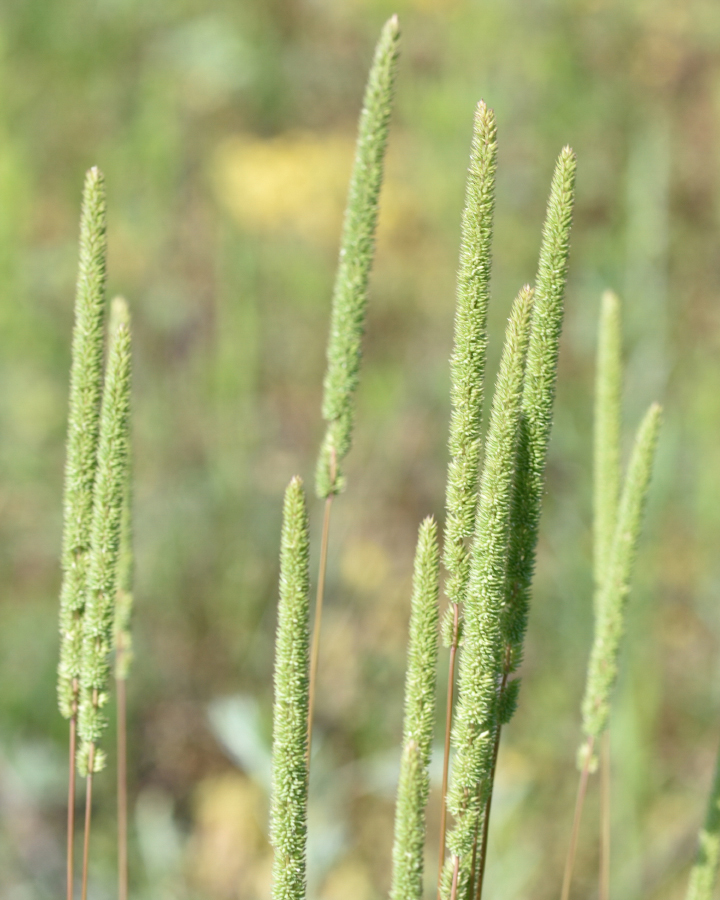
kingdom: Plantae
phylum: Tracheophyta
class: Liliopsida
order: Poales
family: Poaceae
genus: Phleum
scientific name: Phleum phleoides
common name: Purple-stem cat's-tail
